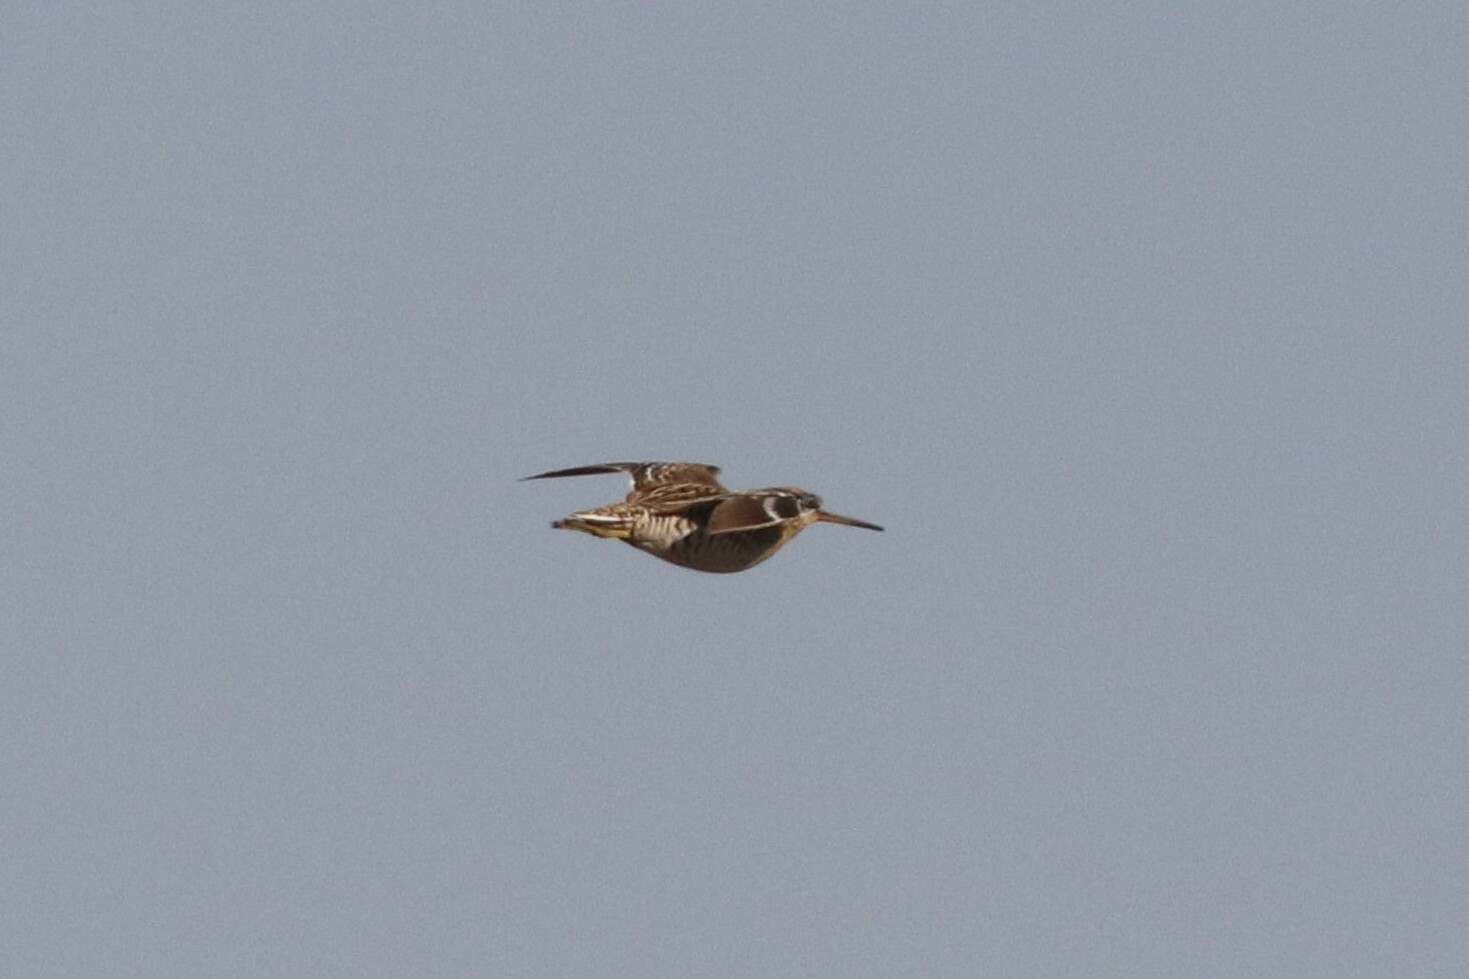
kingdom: Animalia
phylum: Chordata
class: Aves
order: Charadriiformes
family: Scolopacidae
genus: Gallinago
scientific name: Gallinago media
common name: Great snipe
